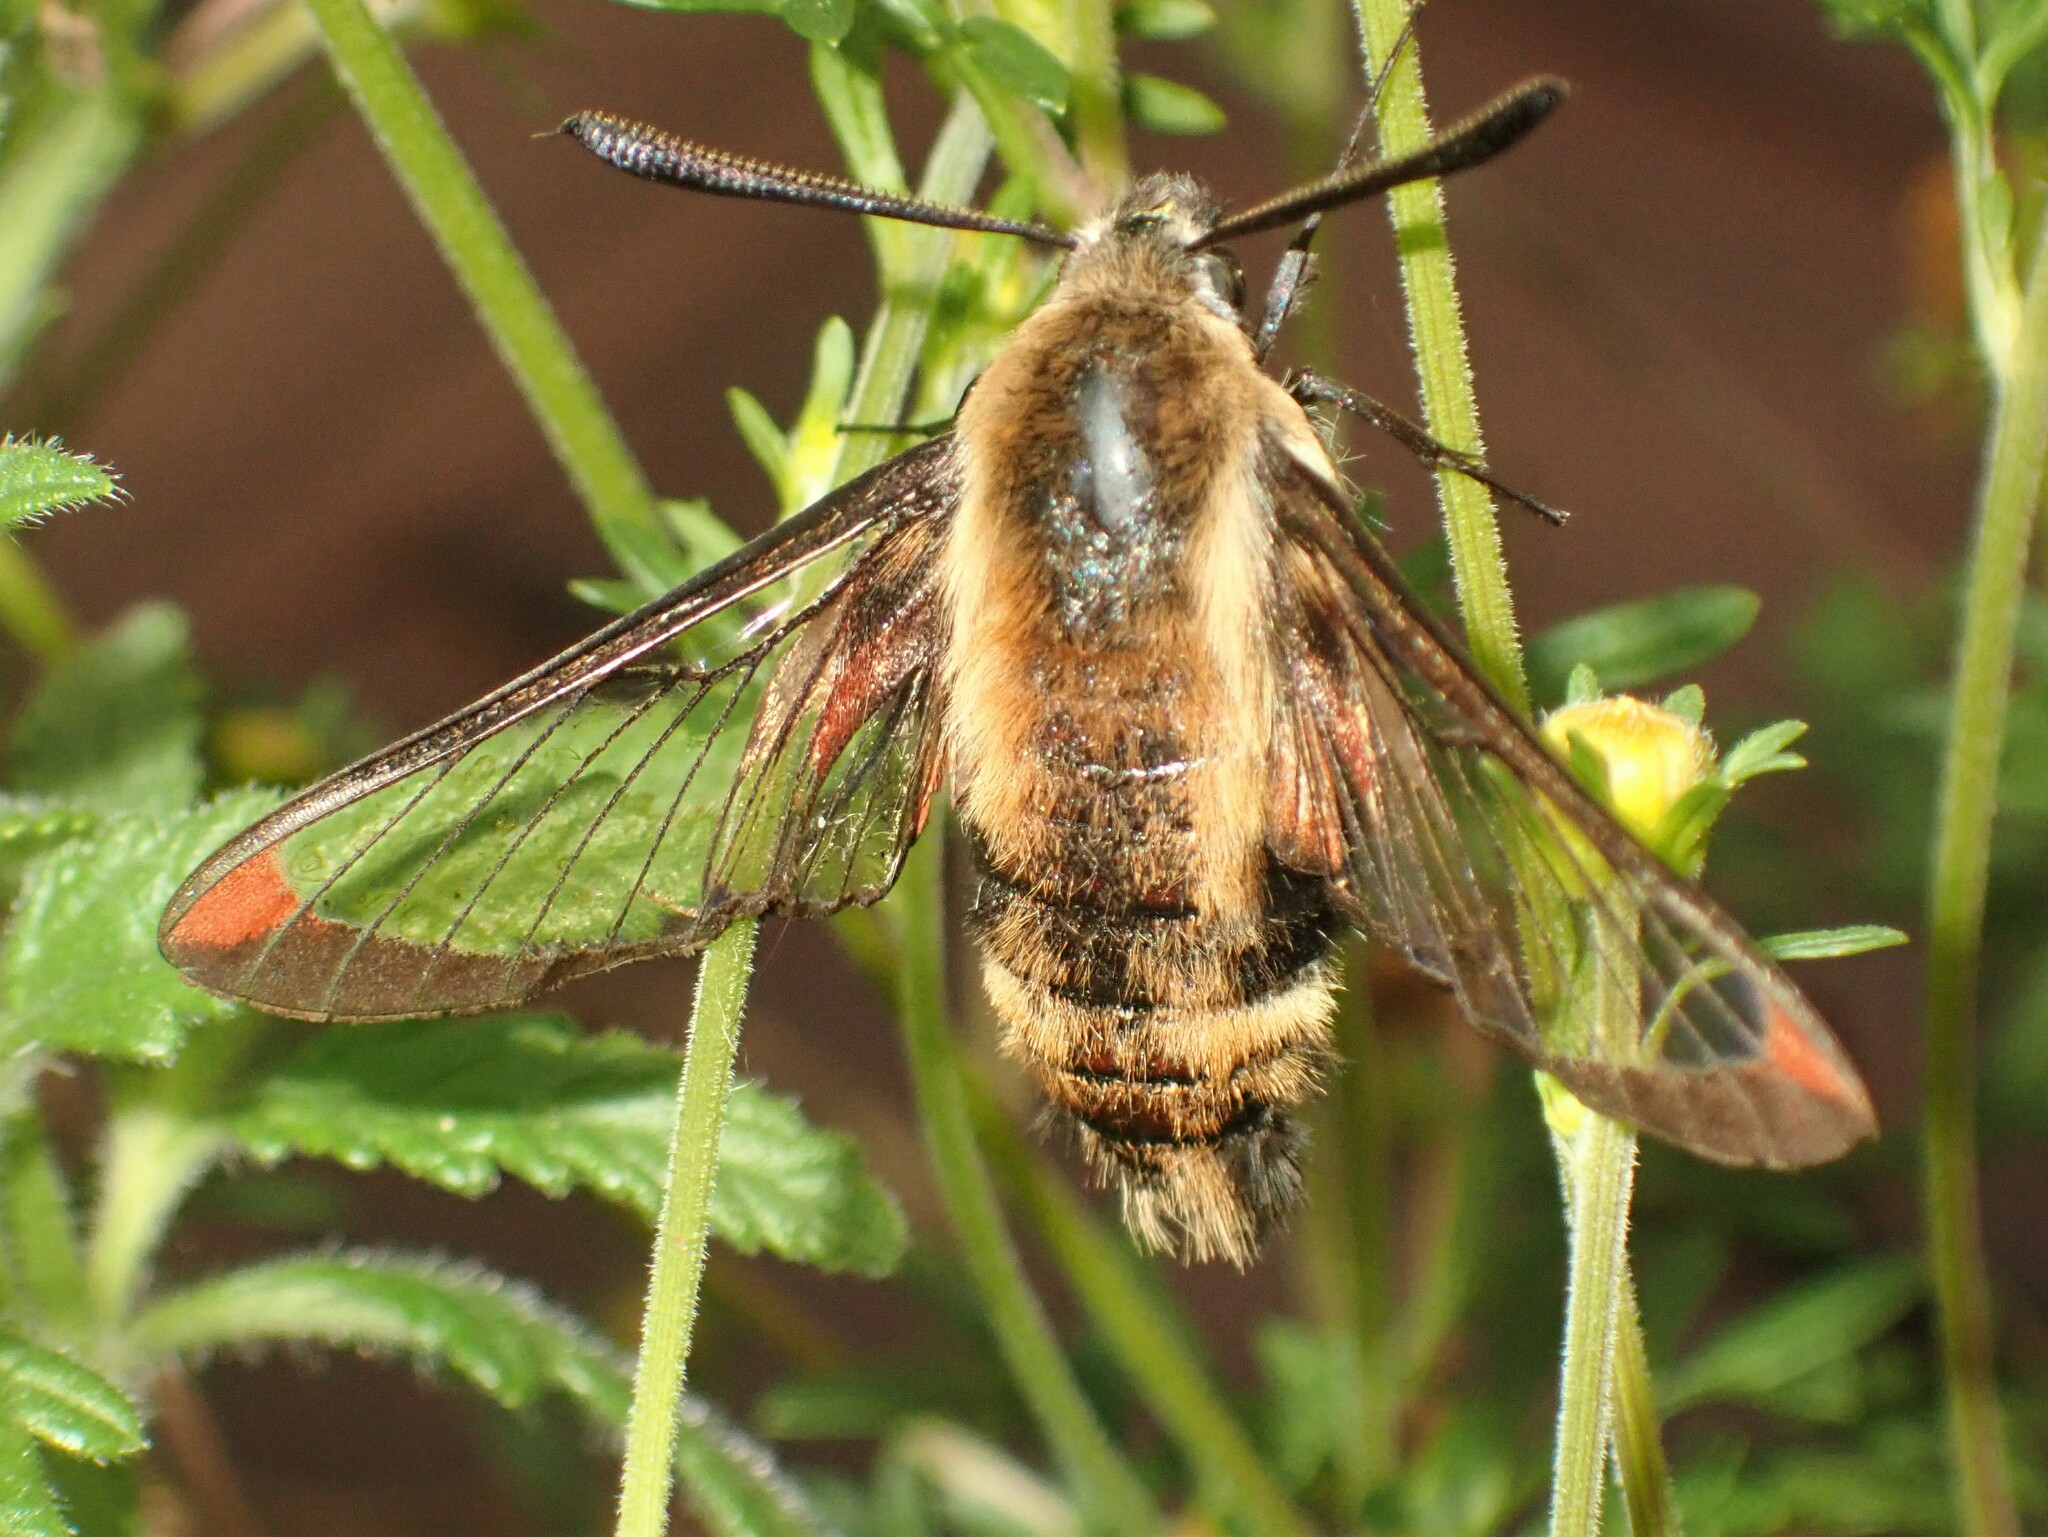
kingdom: Animalia
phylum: Arthropoda
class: Insecta
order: Lepidoptera
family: Sphingidae
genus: Hemaris
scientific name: Hemaris diffinis
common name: Bumblebee moth
